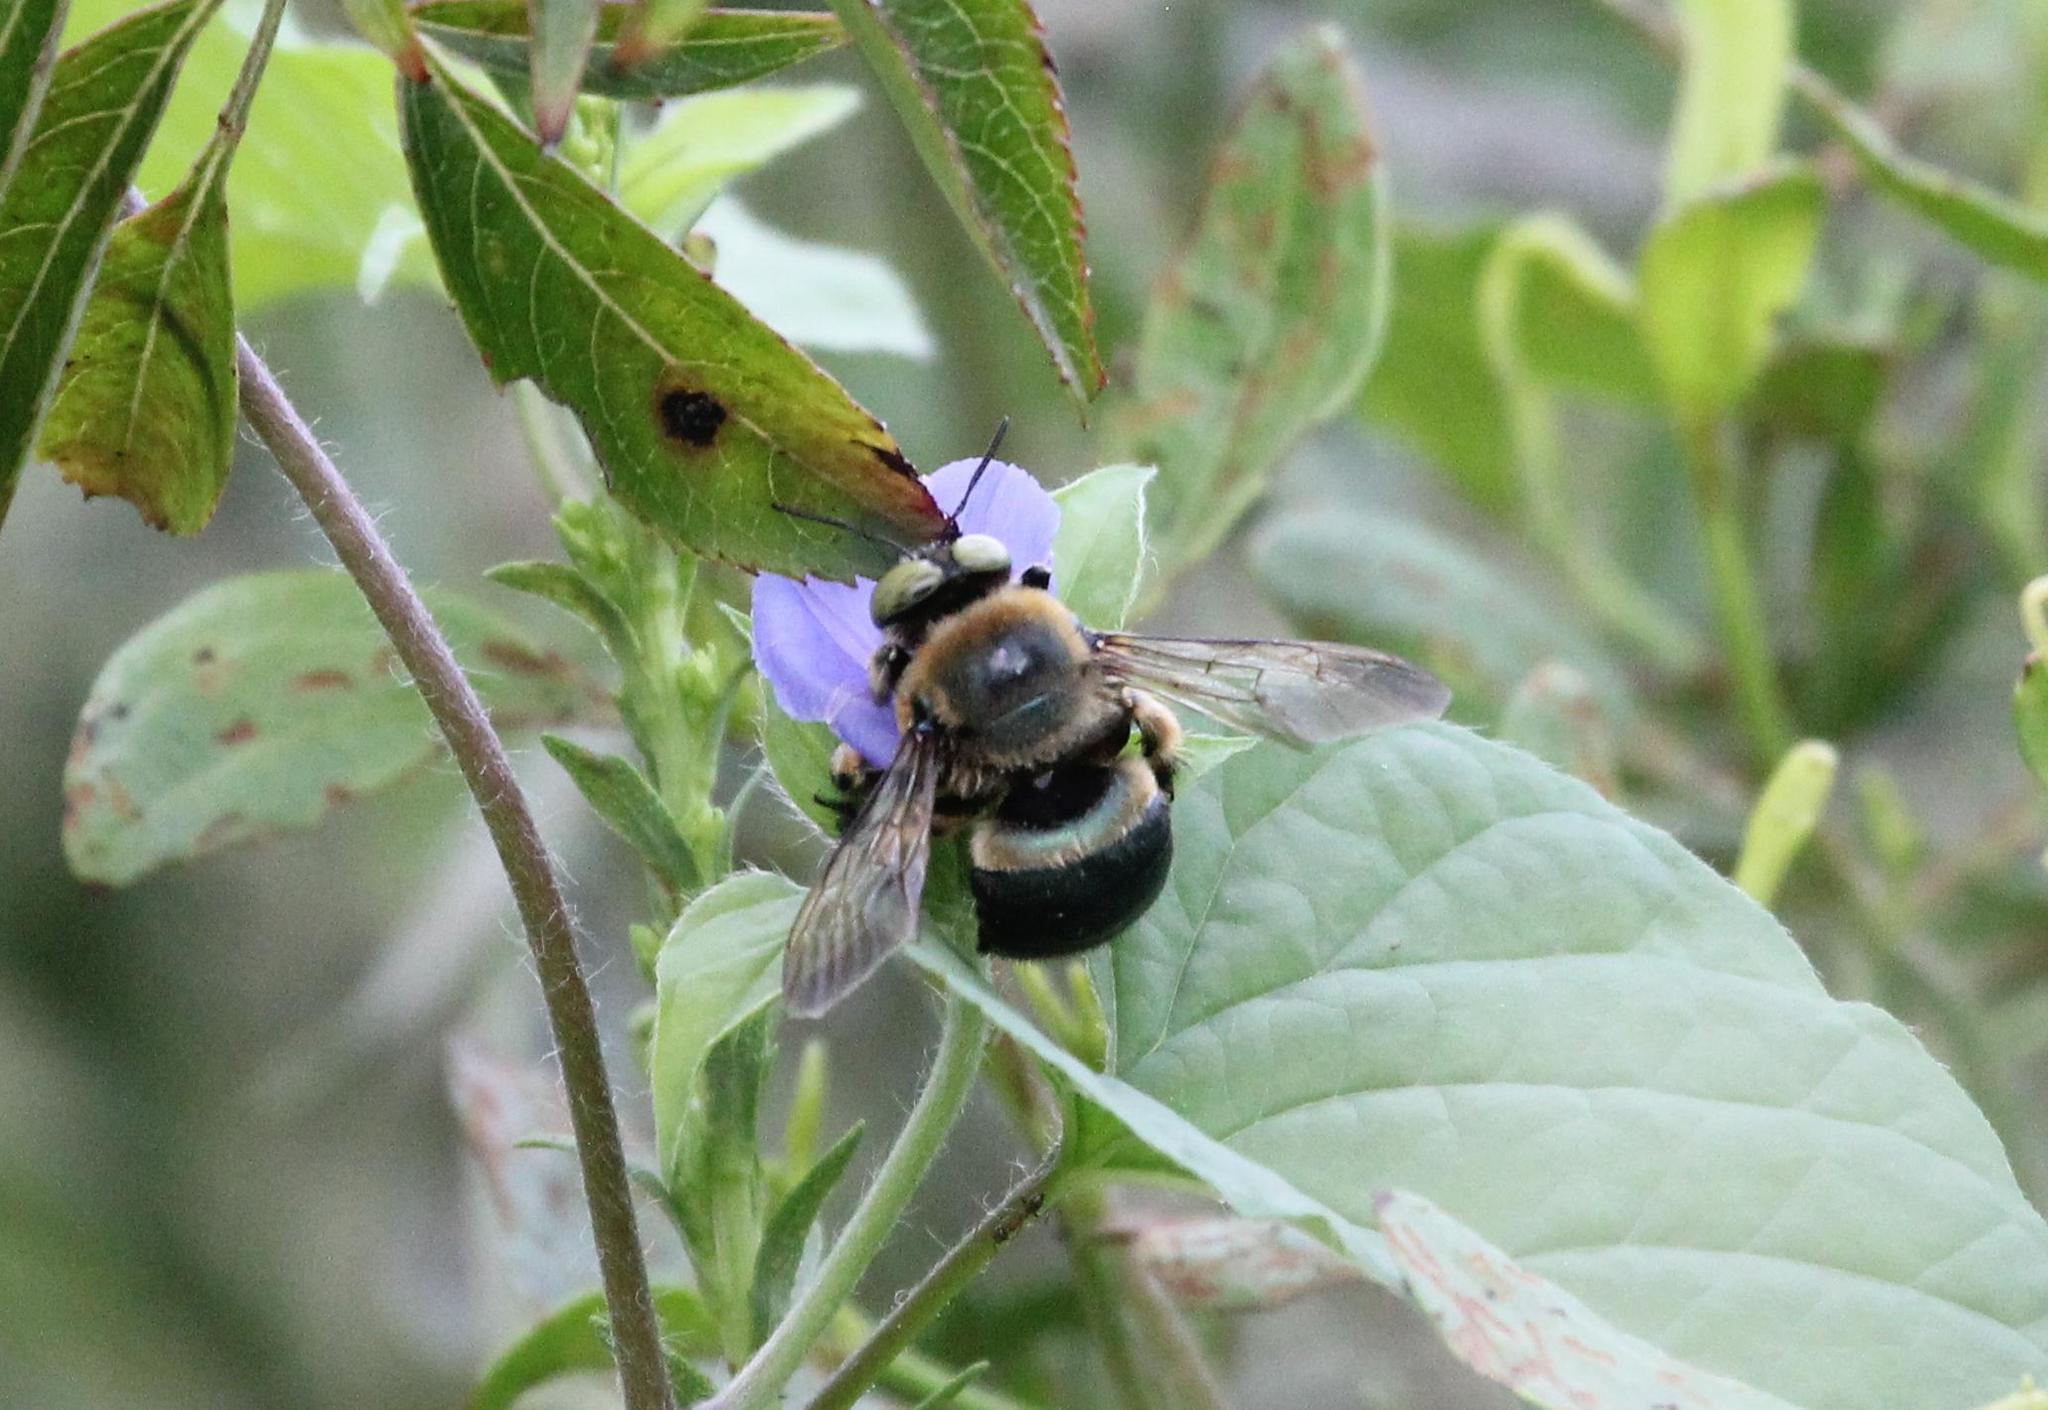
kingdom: Animalia
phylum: Arthropoda
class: Insecta
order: Hymenoptera
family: Apidae
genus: Xylocopa
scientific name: Xylocopa micans
